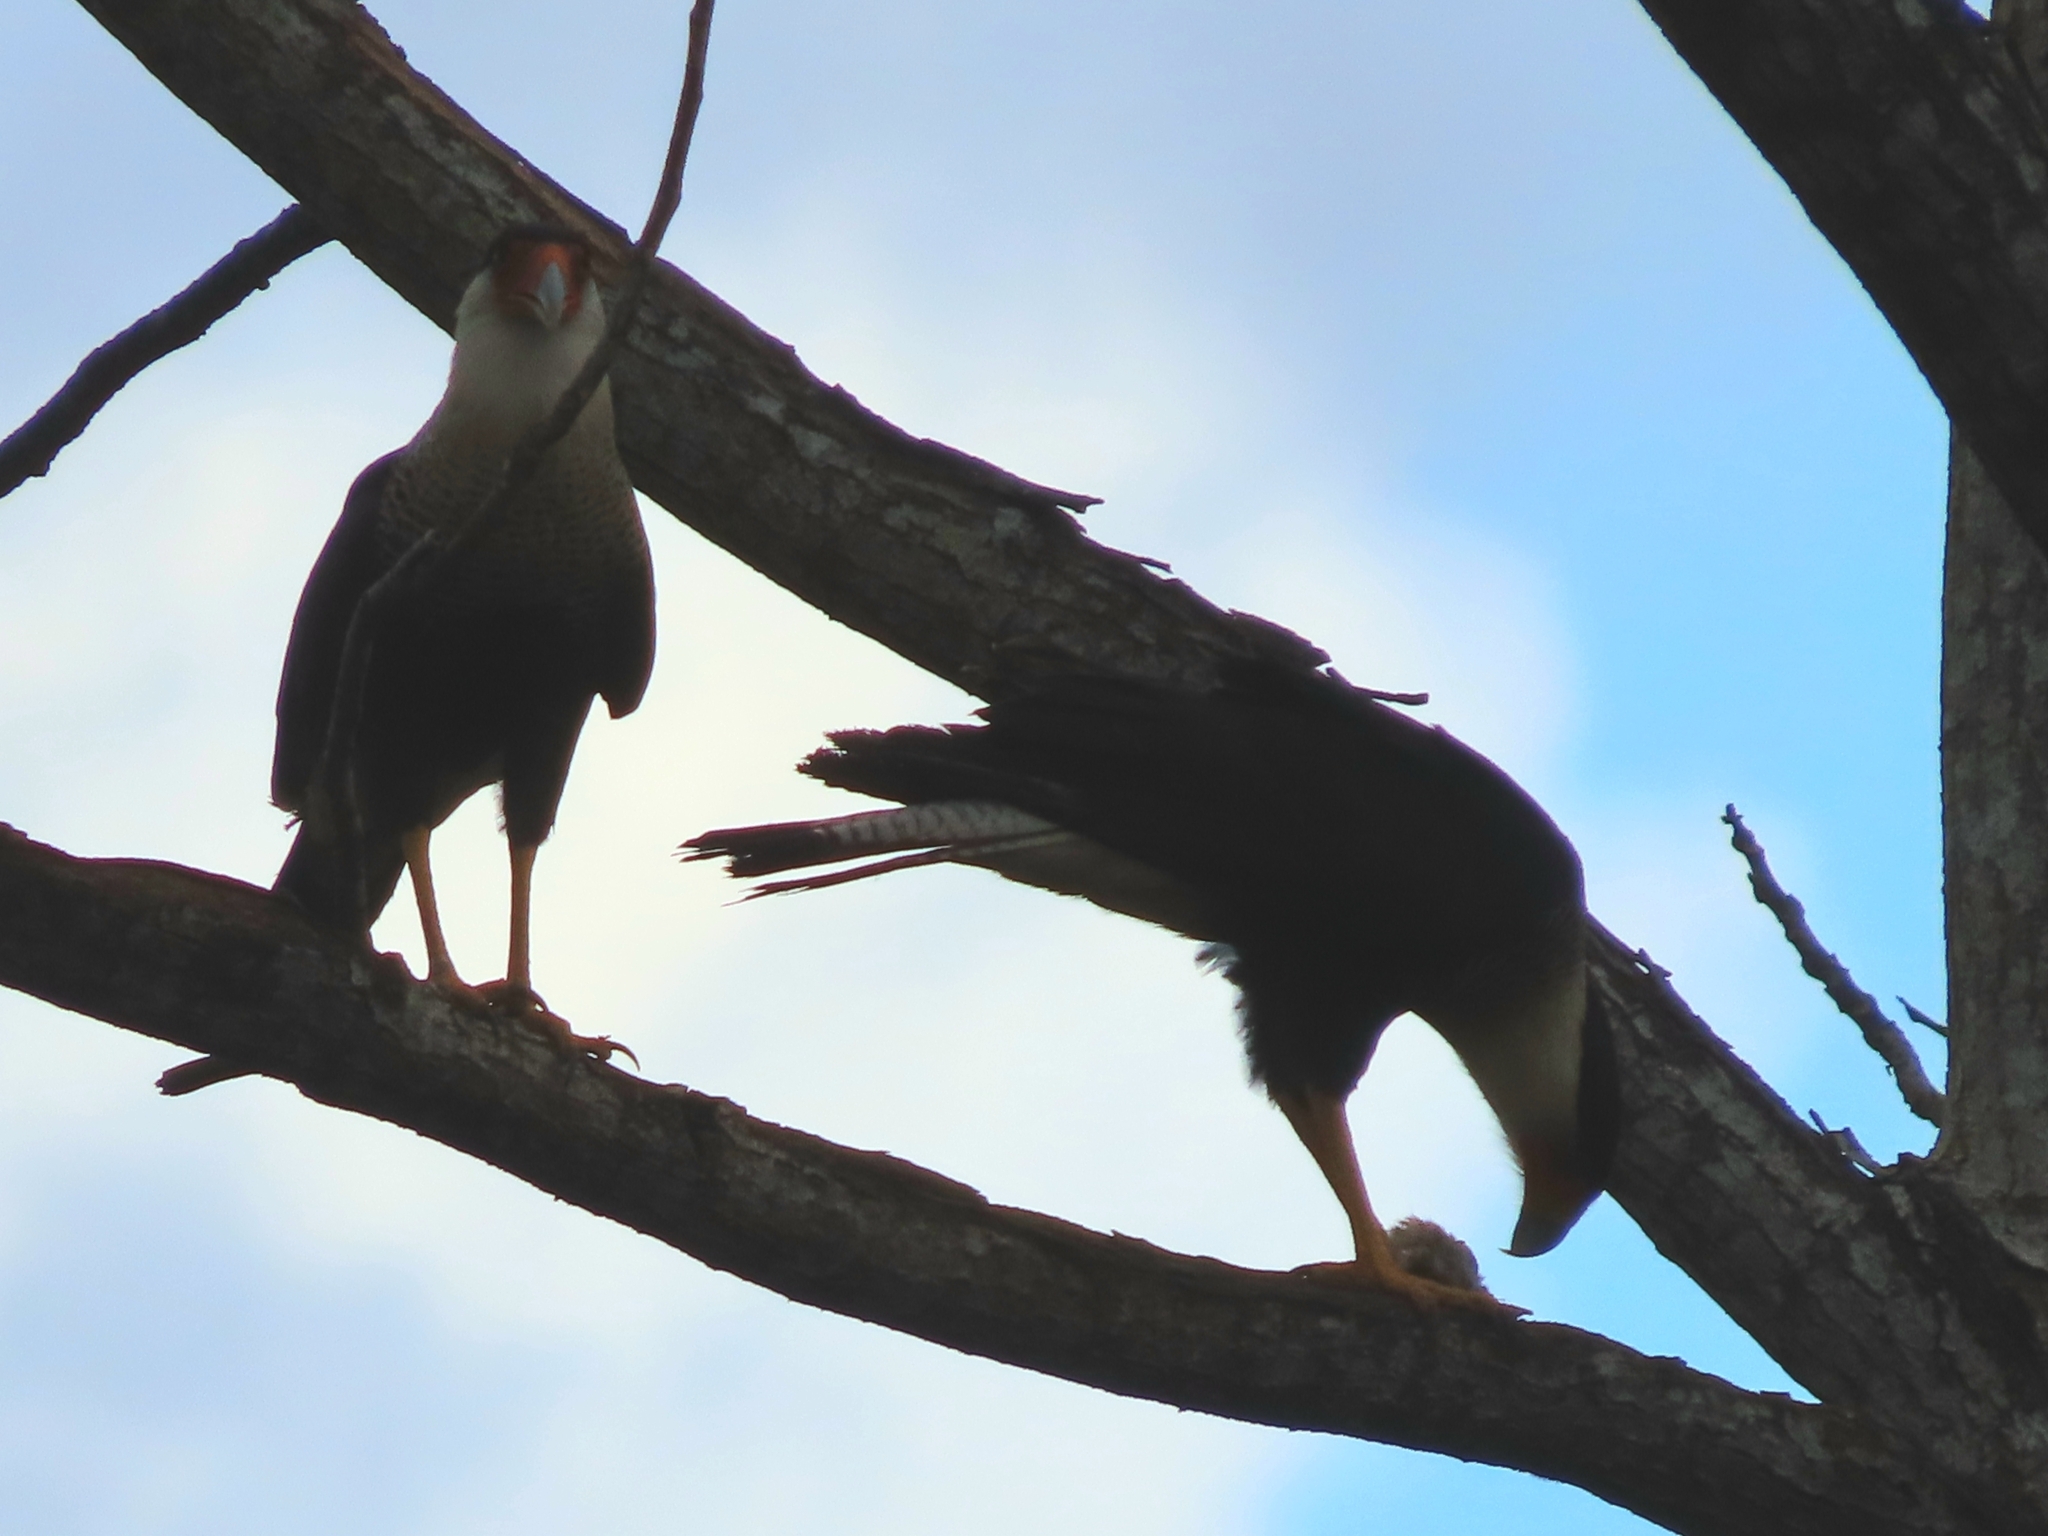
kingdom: Animalia
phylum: Chordata
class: Aves
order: Falconiformes
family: Falconidae
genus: Caracara
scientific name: Caracara plancus
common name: Southern caracara
